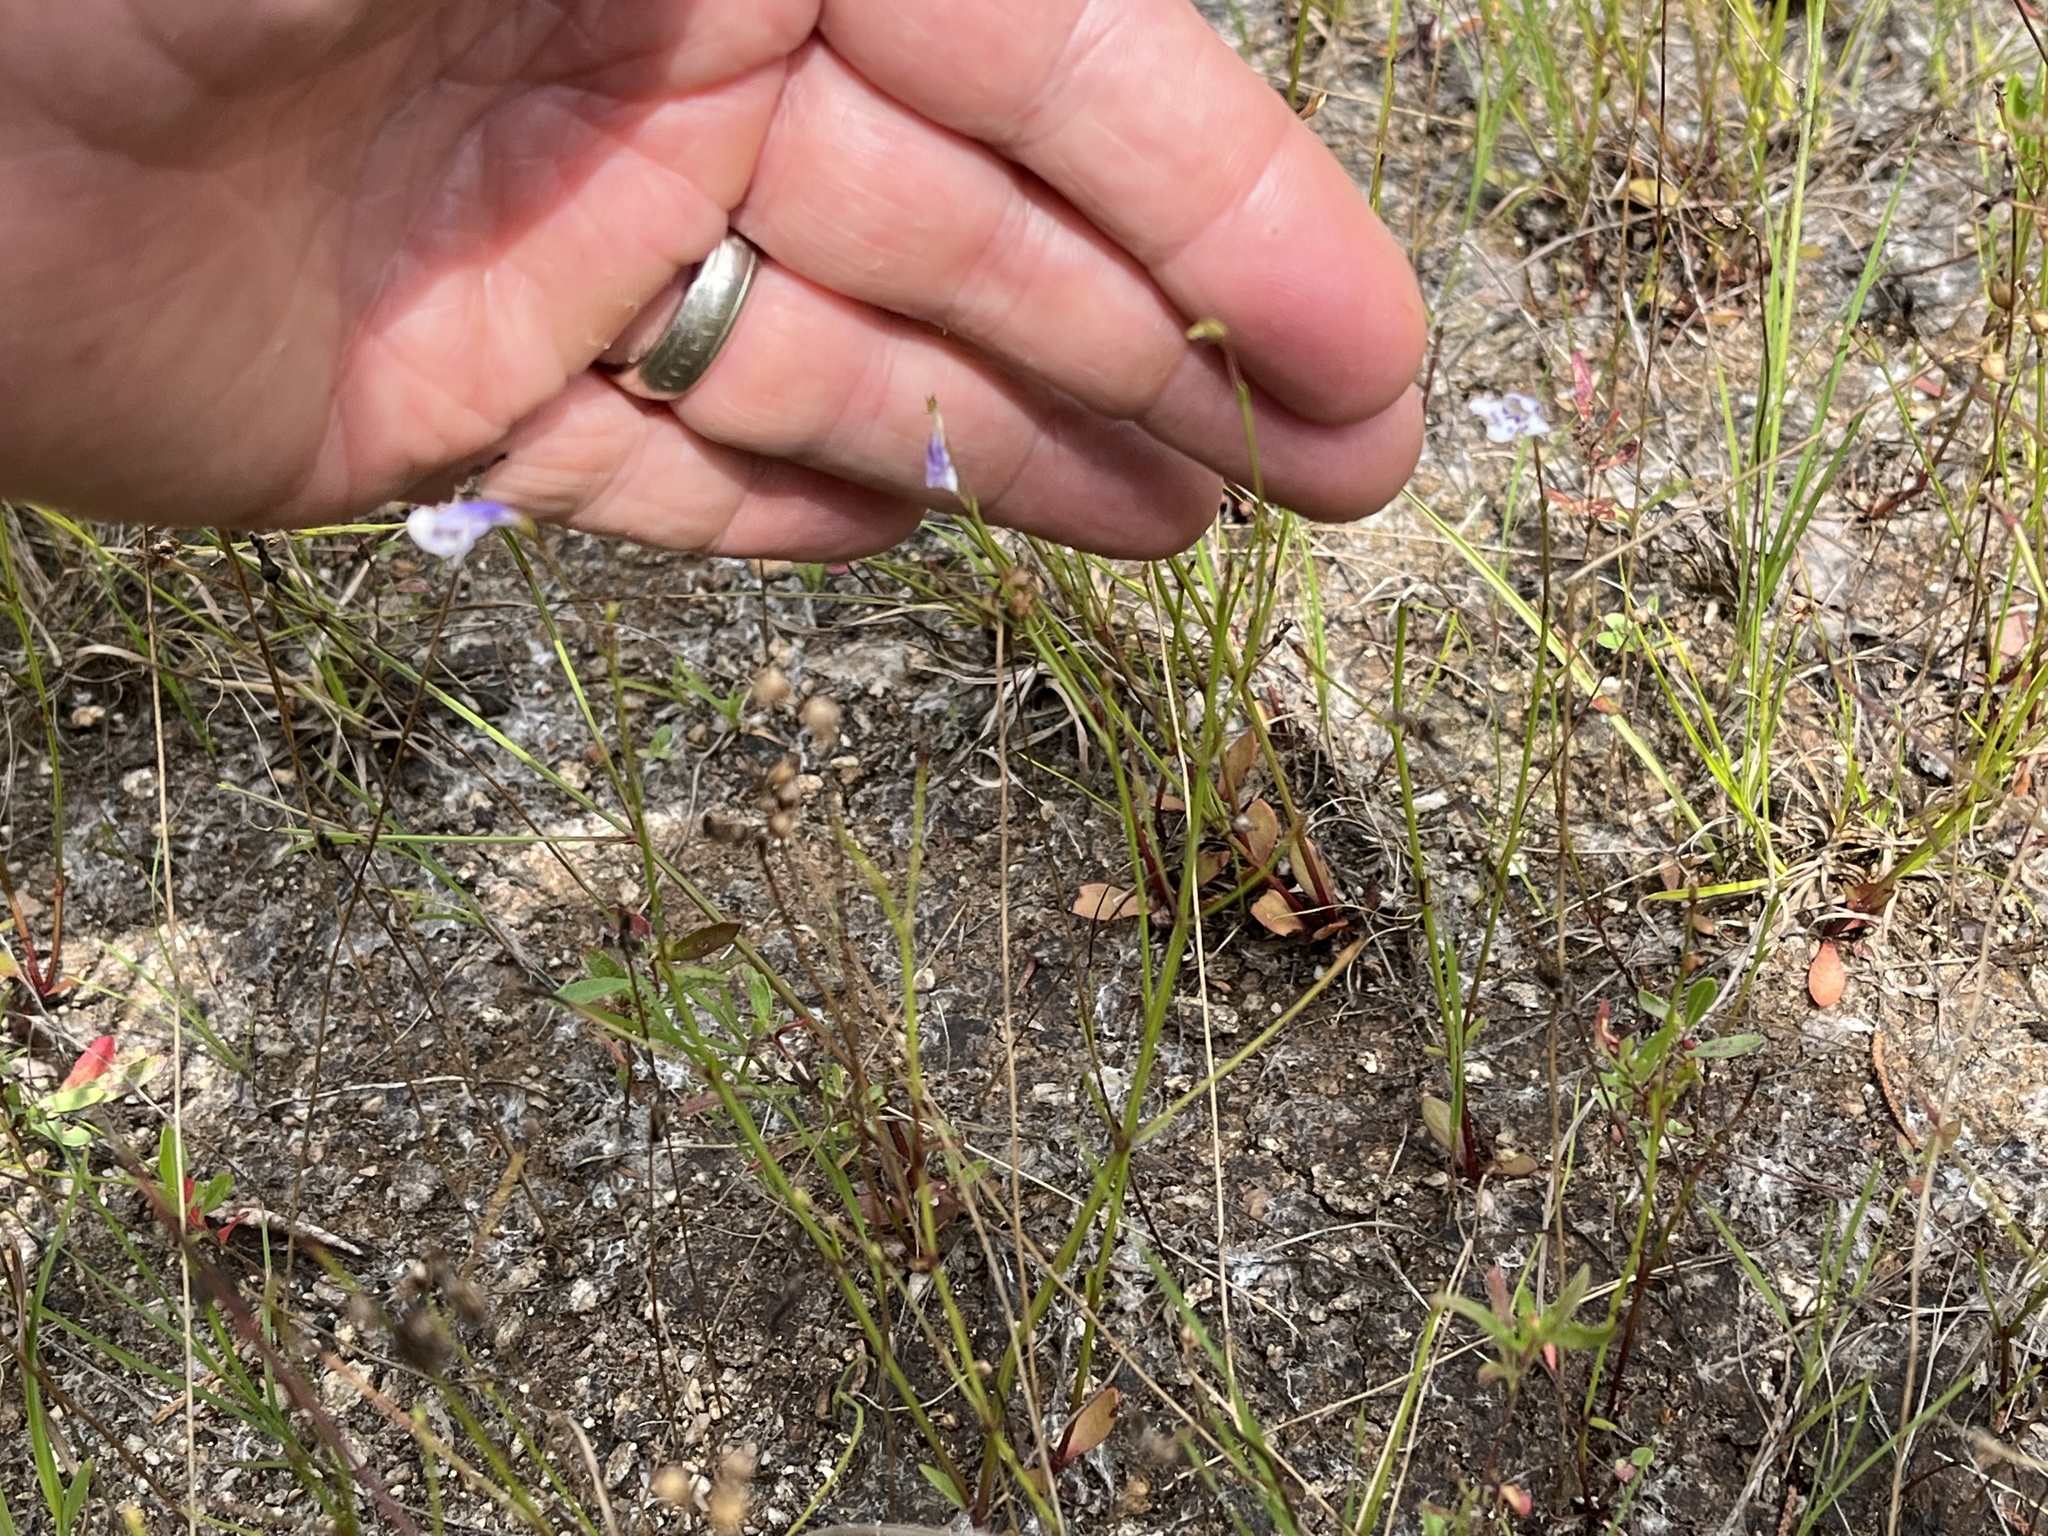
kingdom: Plantae
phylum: Tracheophyta
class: Magnoliopsida
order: Lamiales
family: Linderniaceae
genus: Lindernia
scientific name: Lindernia monticola
